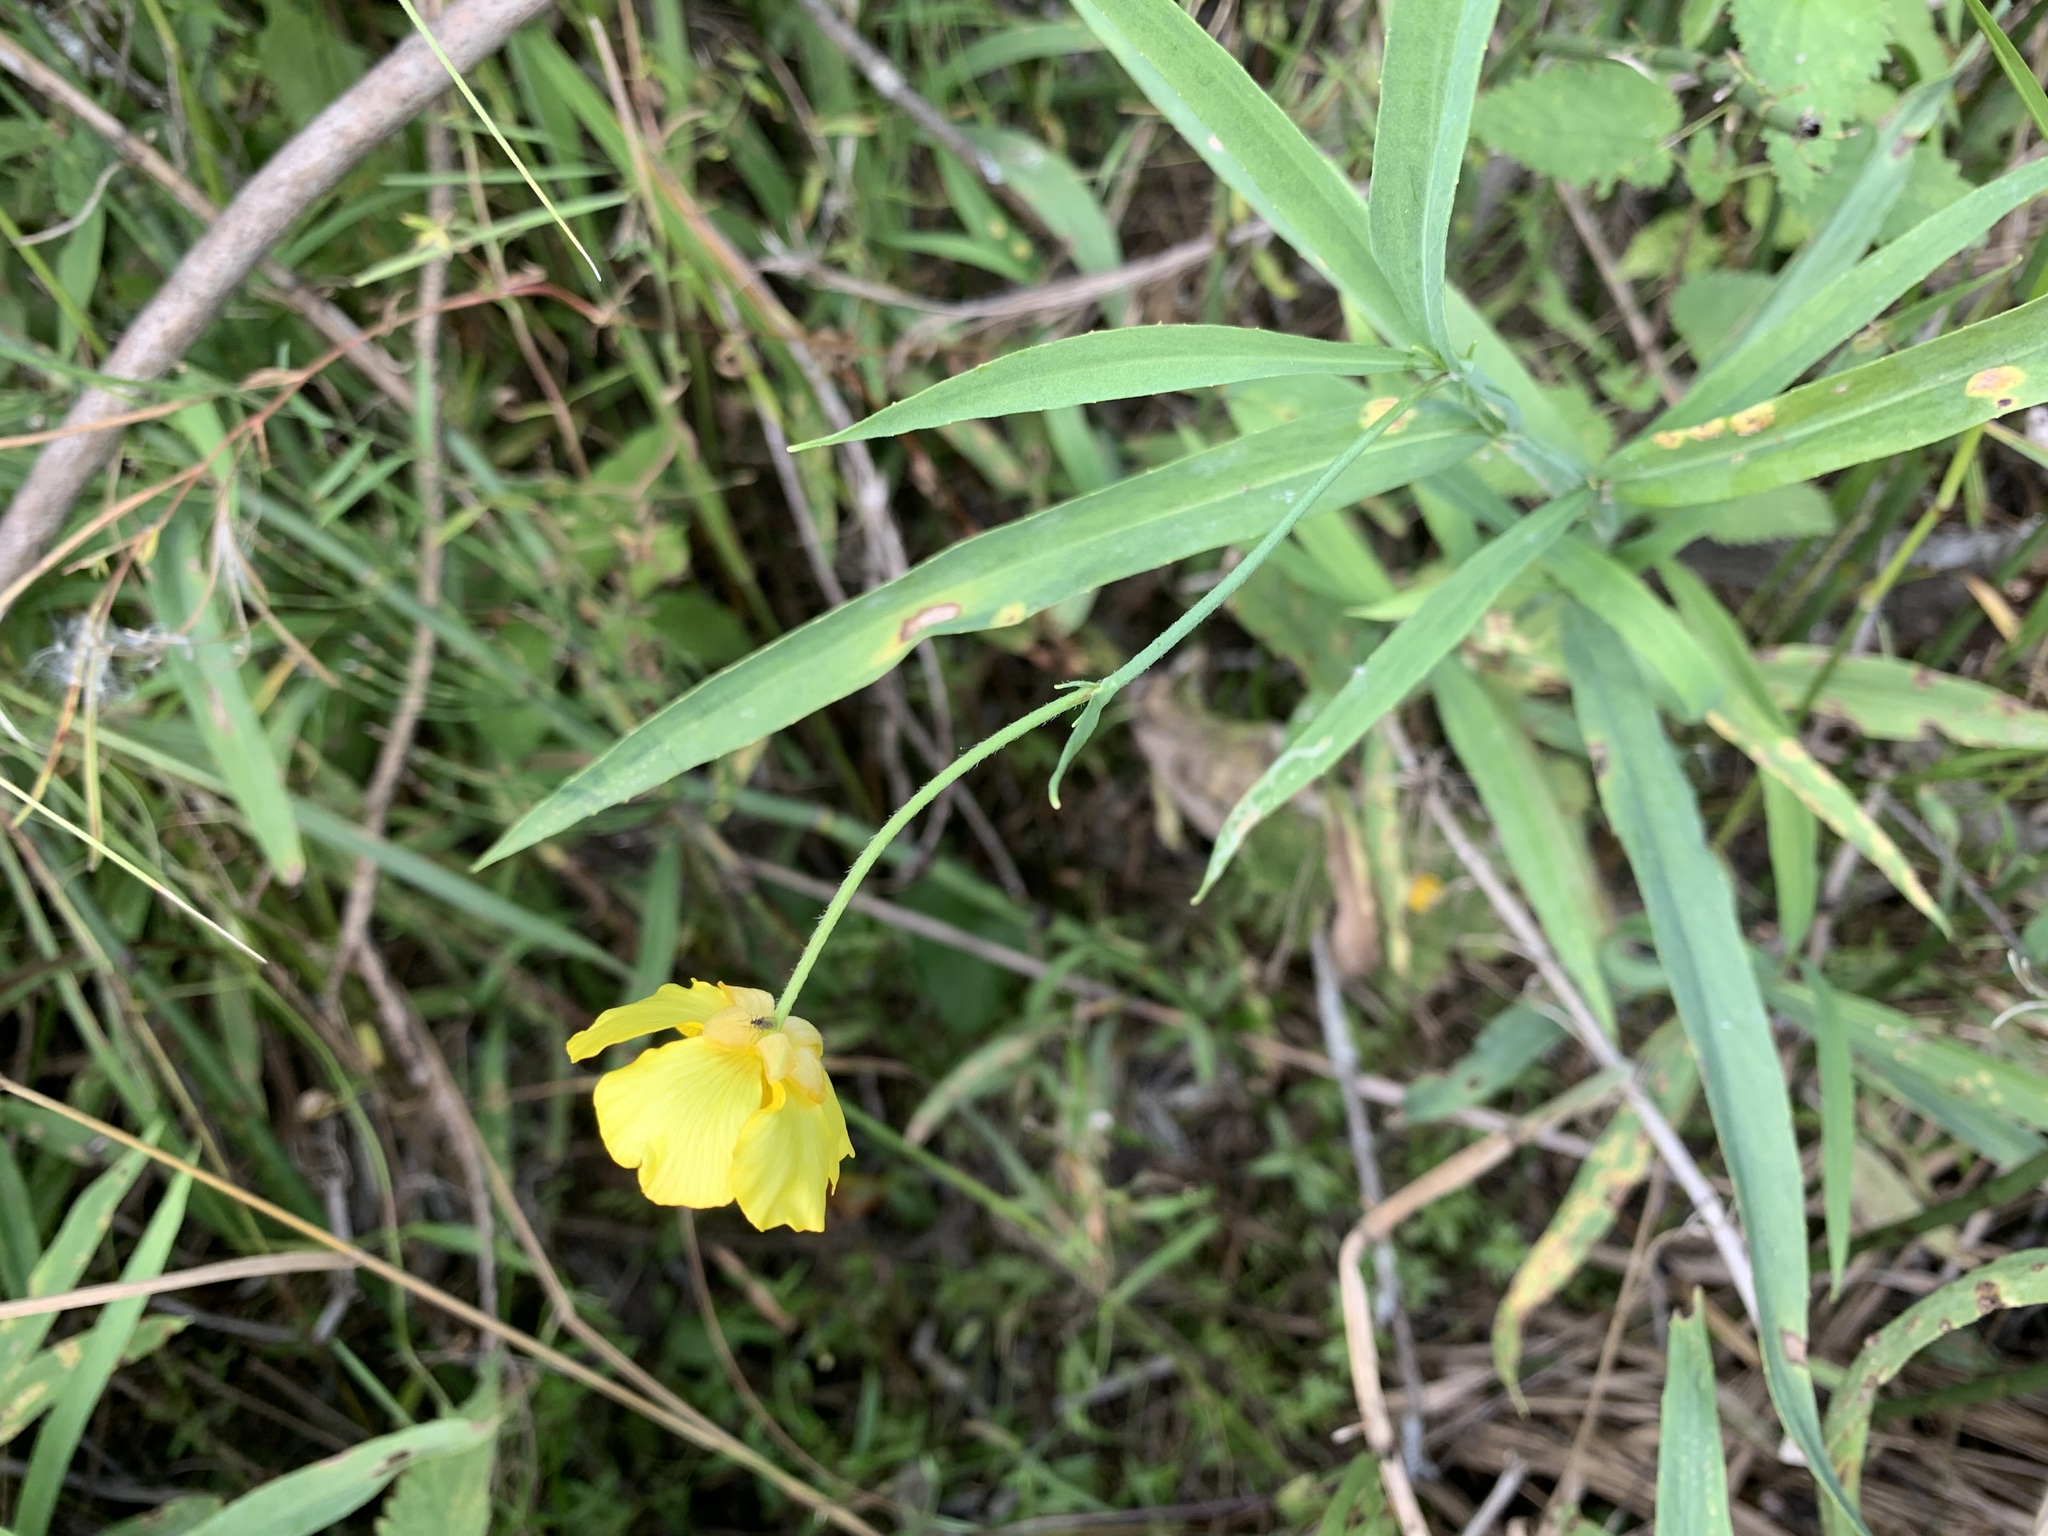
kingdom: Plantae
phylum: Tracheophyta
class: Magnoliopsida
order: Ranunculales
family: Ranunculaceae
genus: Ranunculus
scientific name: Ranunculus lingua
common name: Greater spearwort
